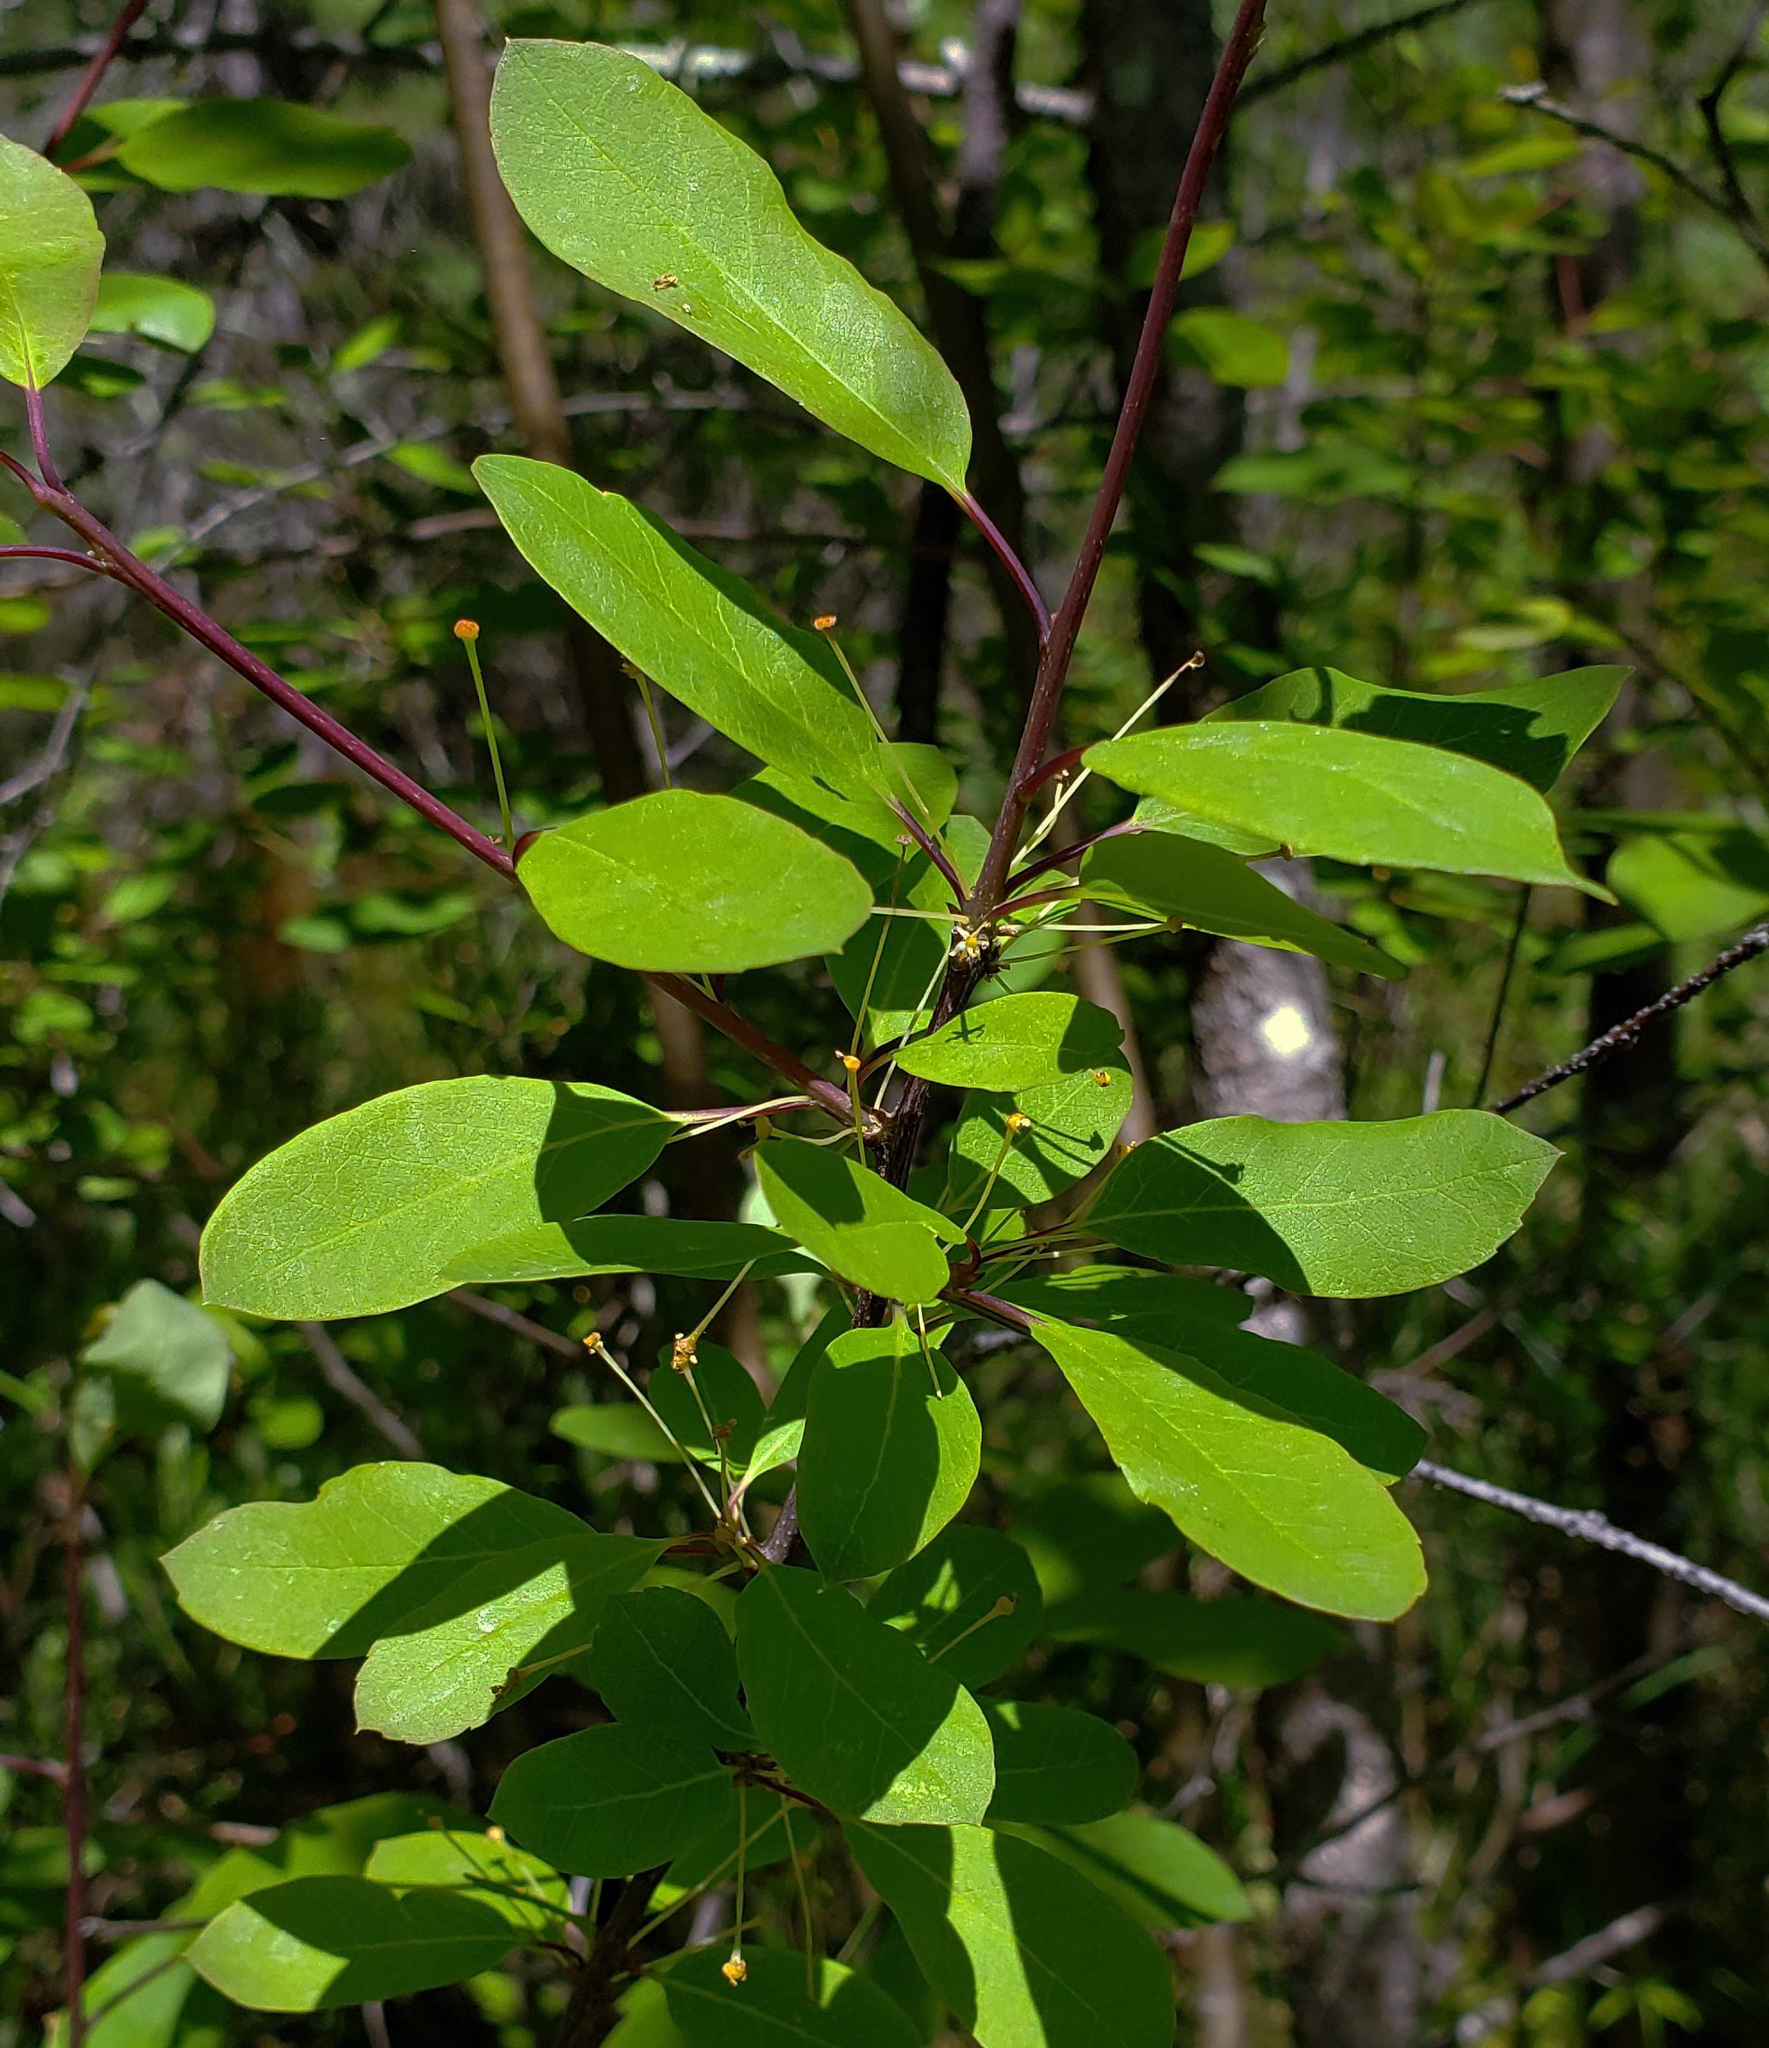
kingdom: Plantae
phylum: Tracheophyta
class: Magnoliopsida
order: Aquifoliales
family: Aquifoliaceae
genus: Ilex
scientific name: Ilex mucronata
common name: Catberry
